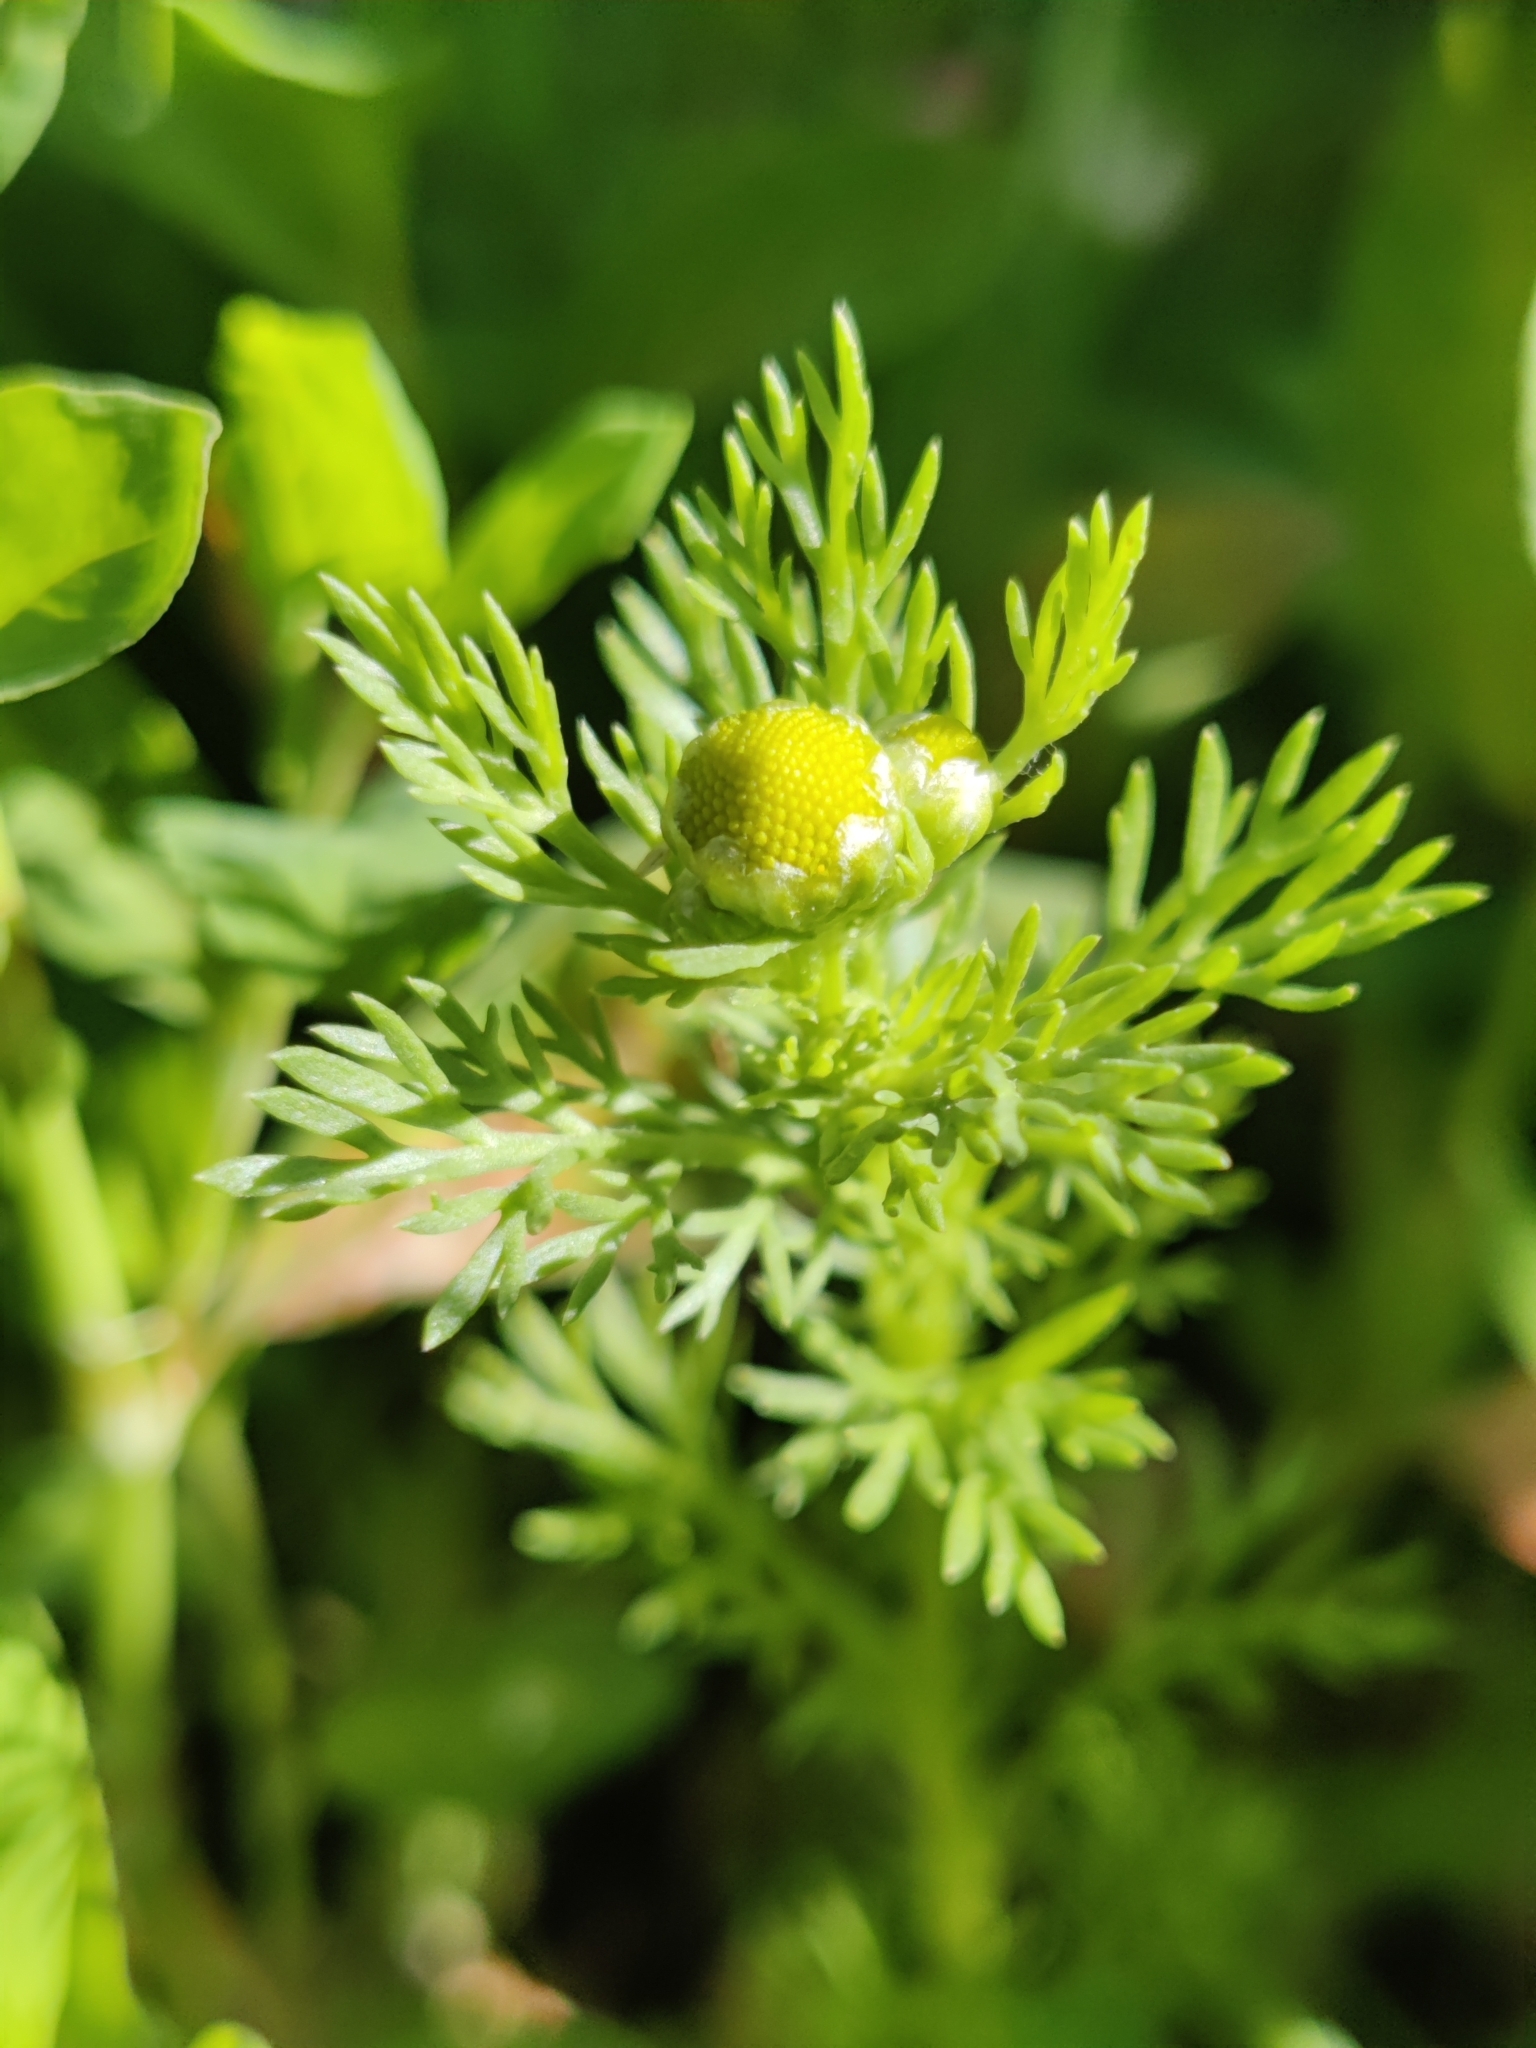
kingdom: Plantae
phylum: Tracheophyta
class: Magnoliopsida
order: Asterales
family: Asteraceae
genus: Matricaria
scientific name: Matricaria discoidea
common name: Disc mayweed
